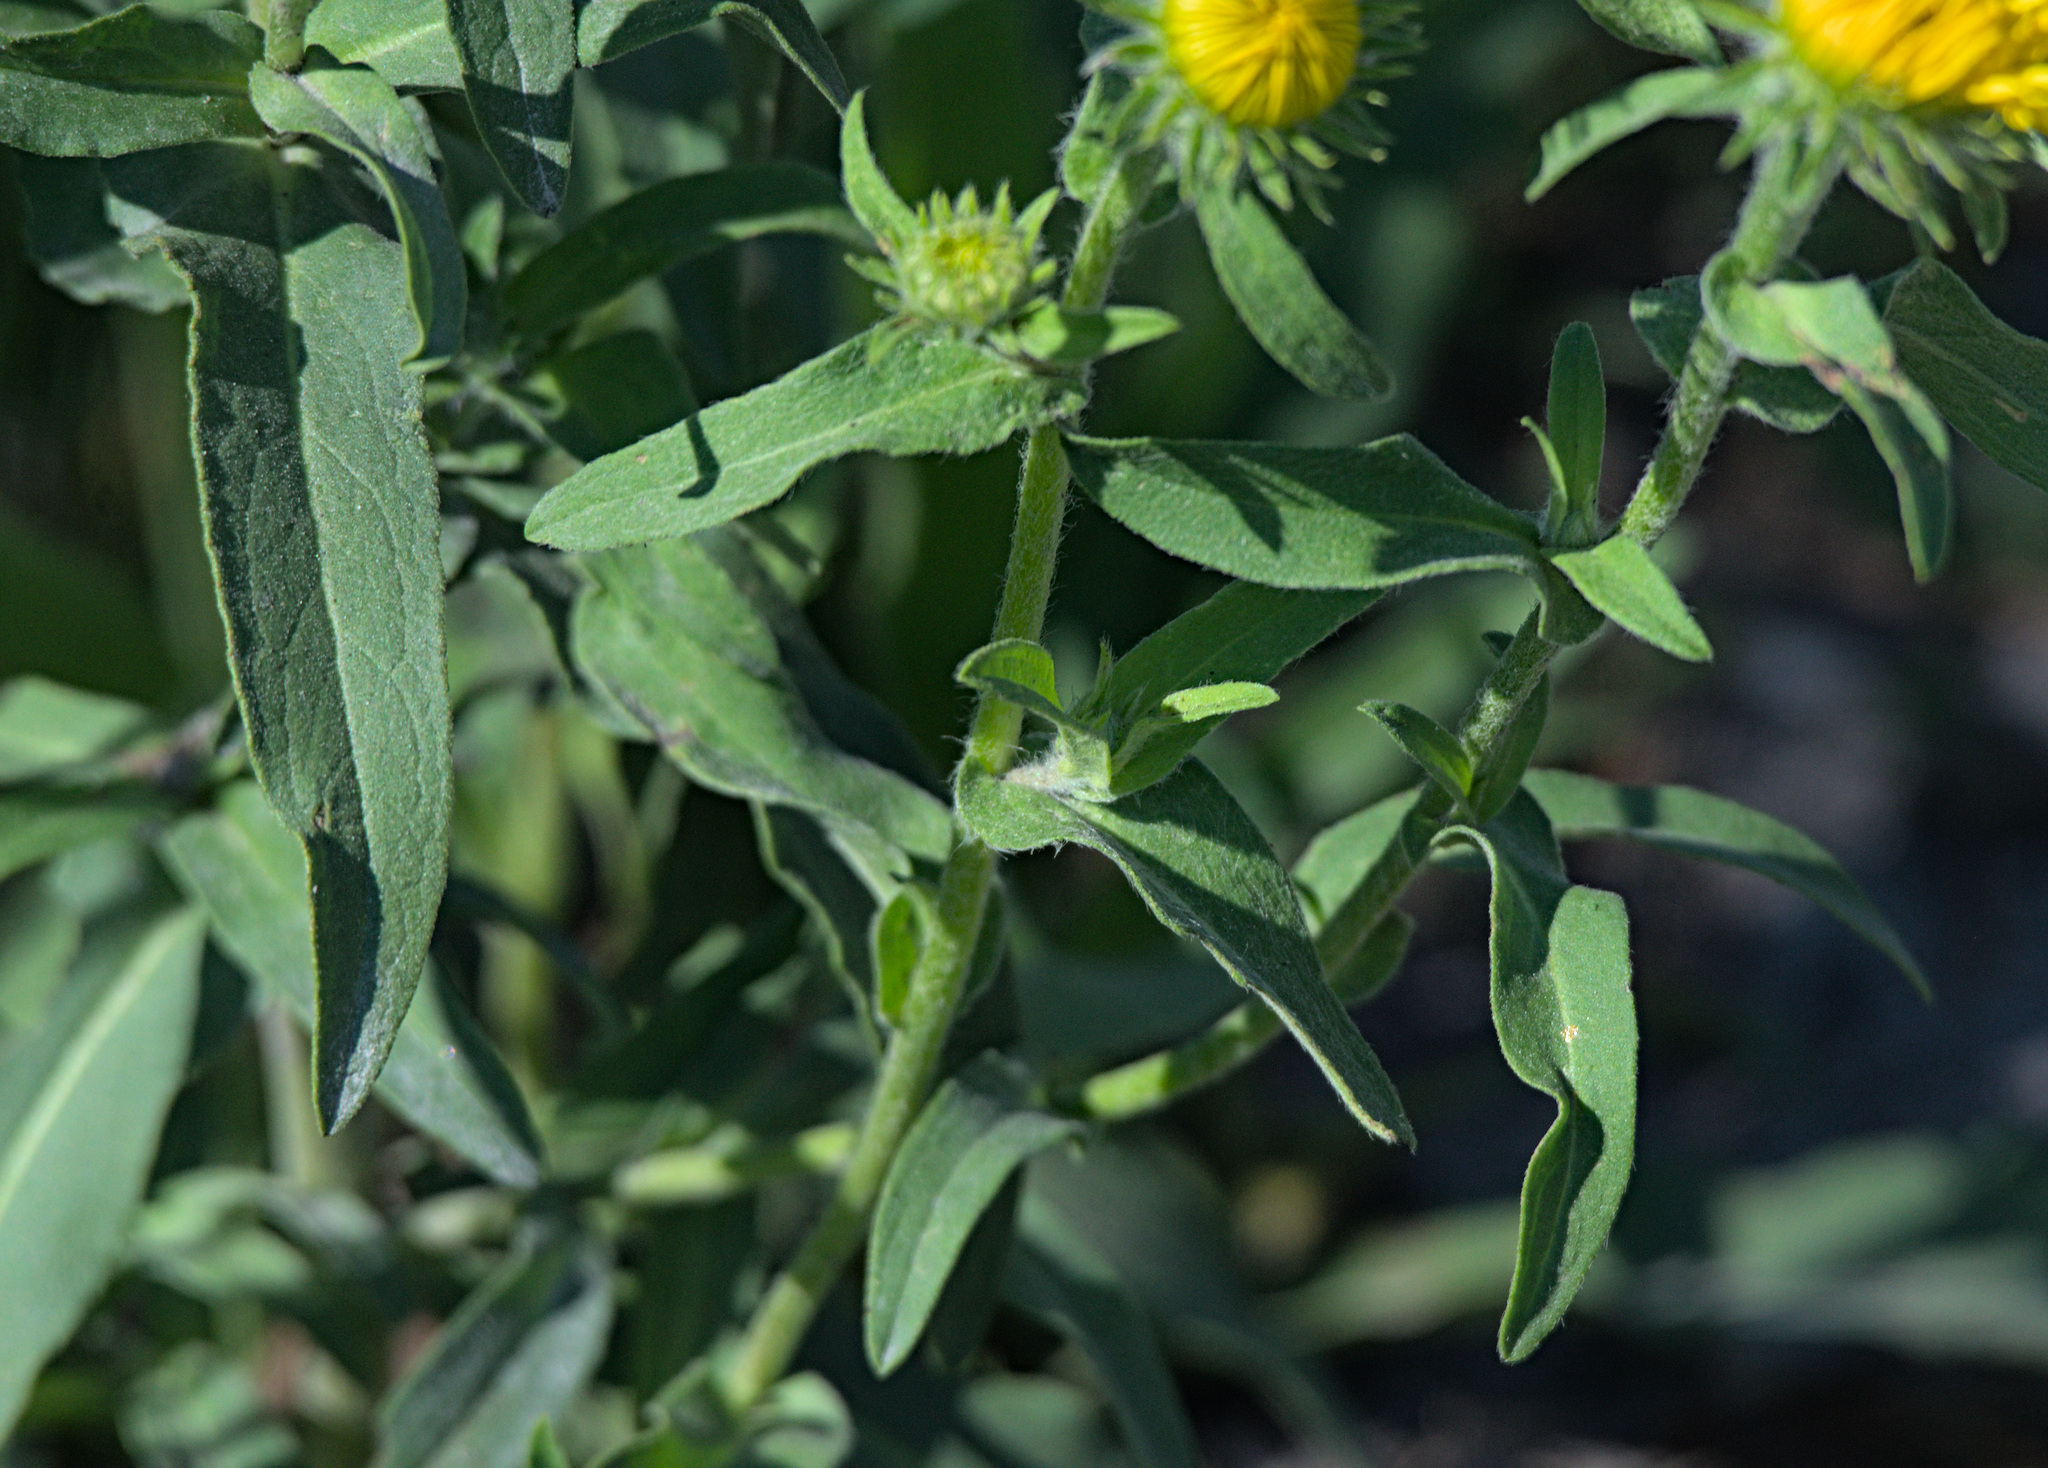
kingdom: Plantae
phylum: Tracheophyta
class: Magnoliopsida
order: Asterales
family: Asteraceae
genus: Pentanema
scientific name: Pentanema britannicum
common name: British elecampane
